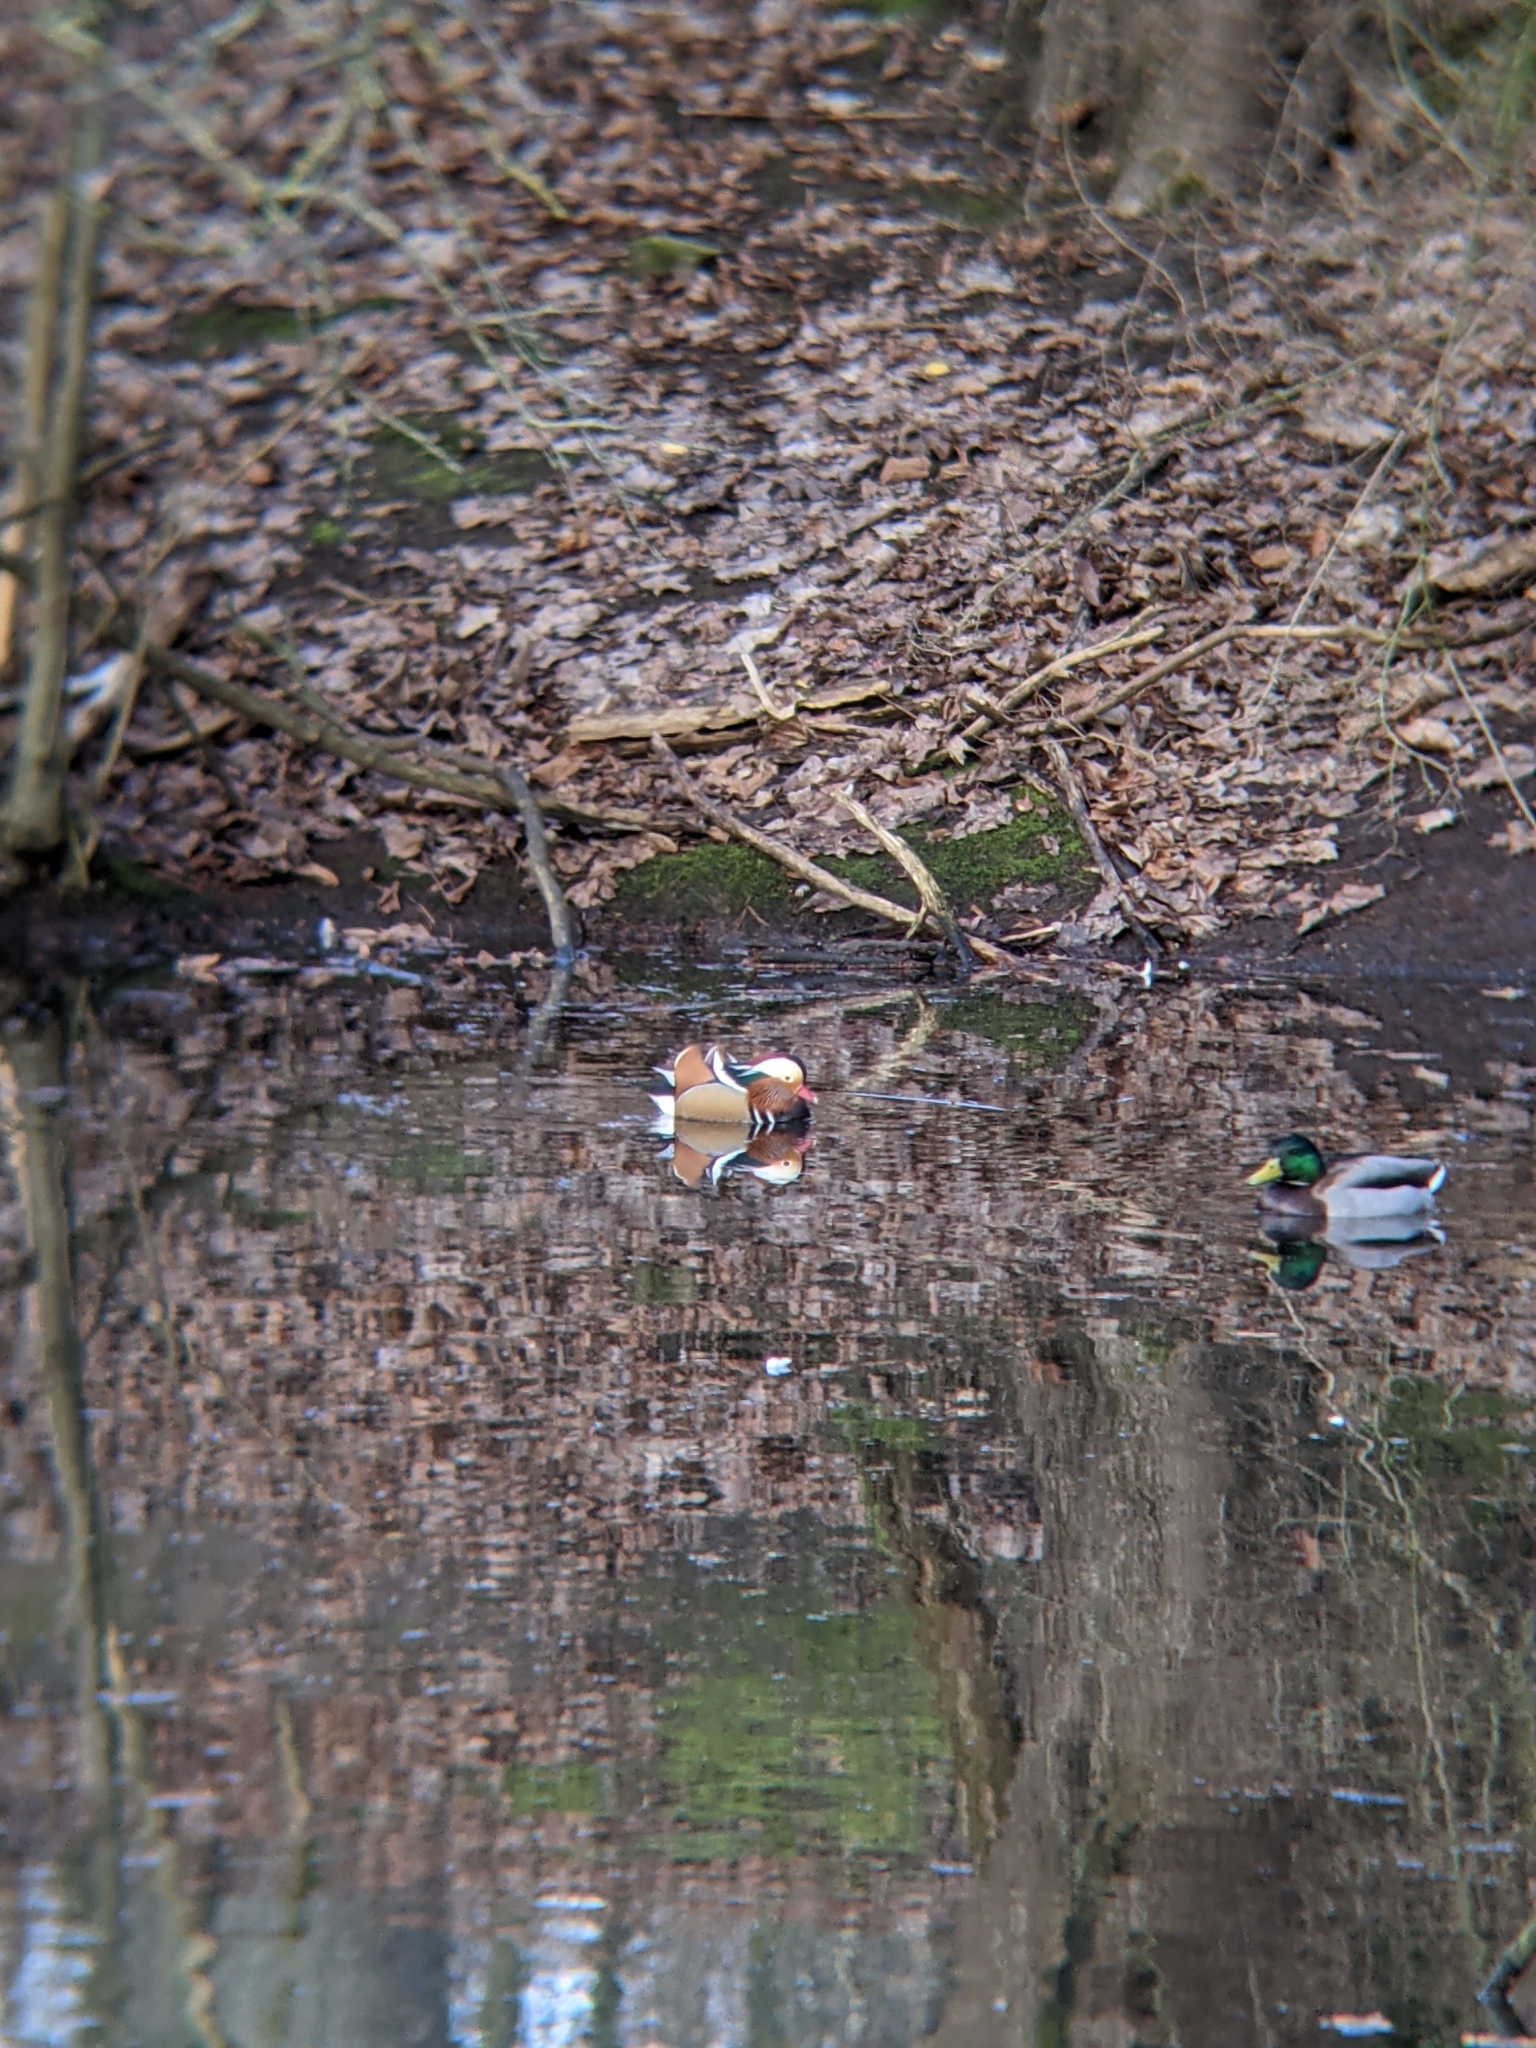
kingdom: Animalia
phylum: Chordata
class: Aves
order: Anseriformes
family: Anatidae
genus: Aix
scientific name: Aix galericulata
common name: Mandarin duck
